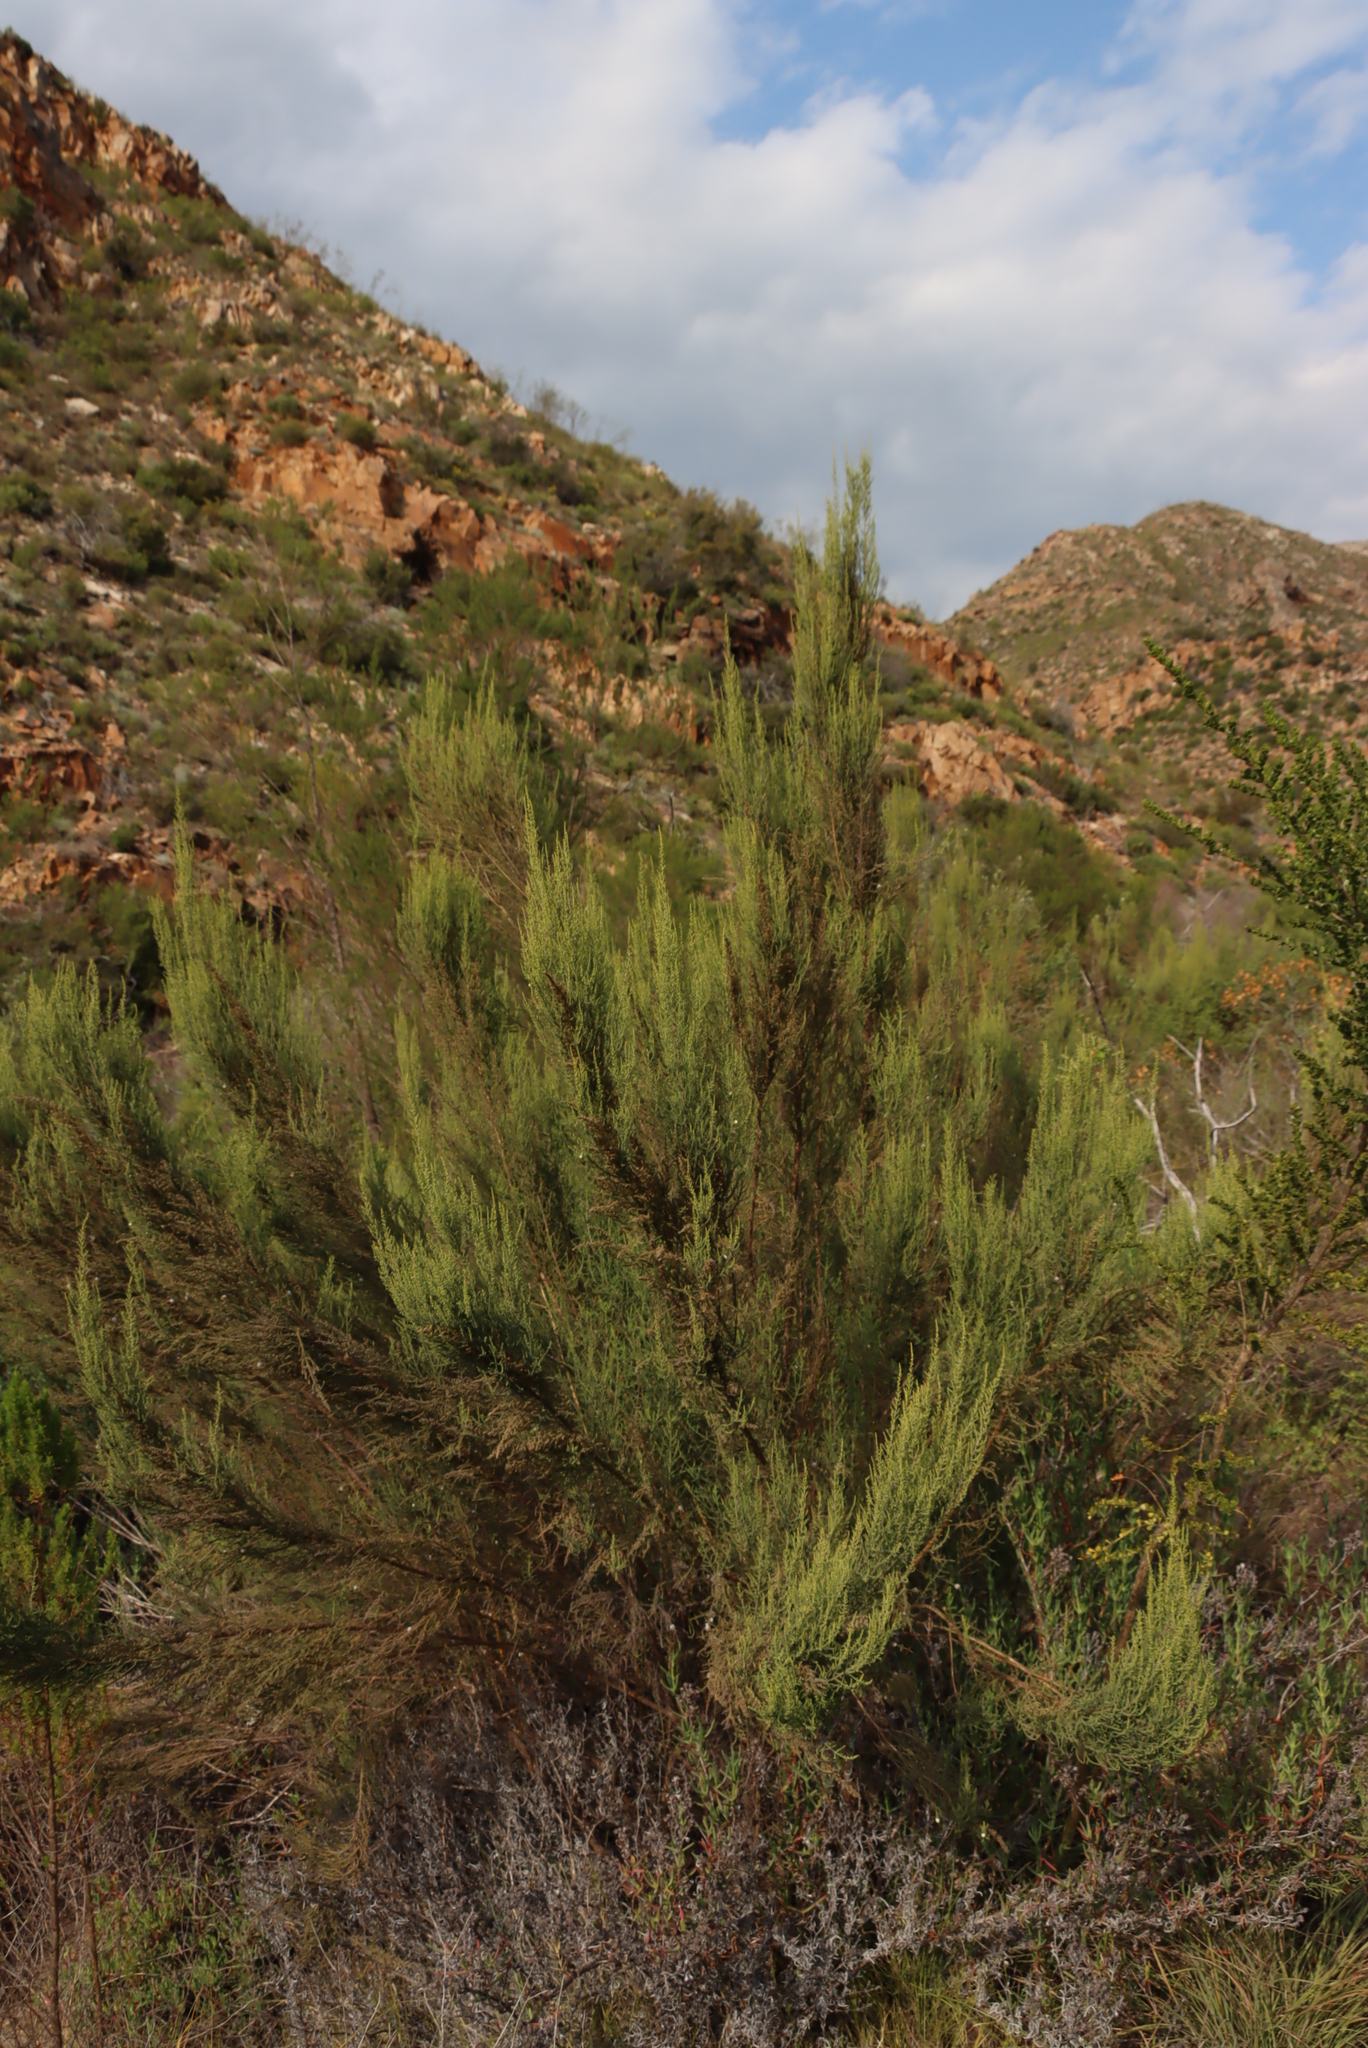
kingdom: Plantae
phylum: Tracheophyta
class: Magnoliopsida
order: Asterales
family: Asteraceae
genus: Dicerothamnus
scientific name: Dicerothamnus rhinocerotis
